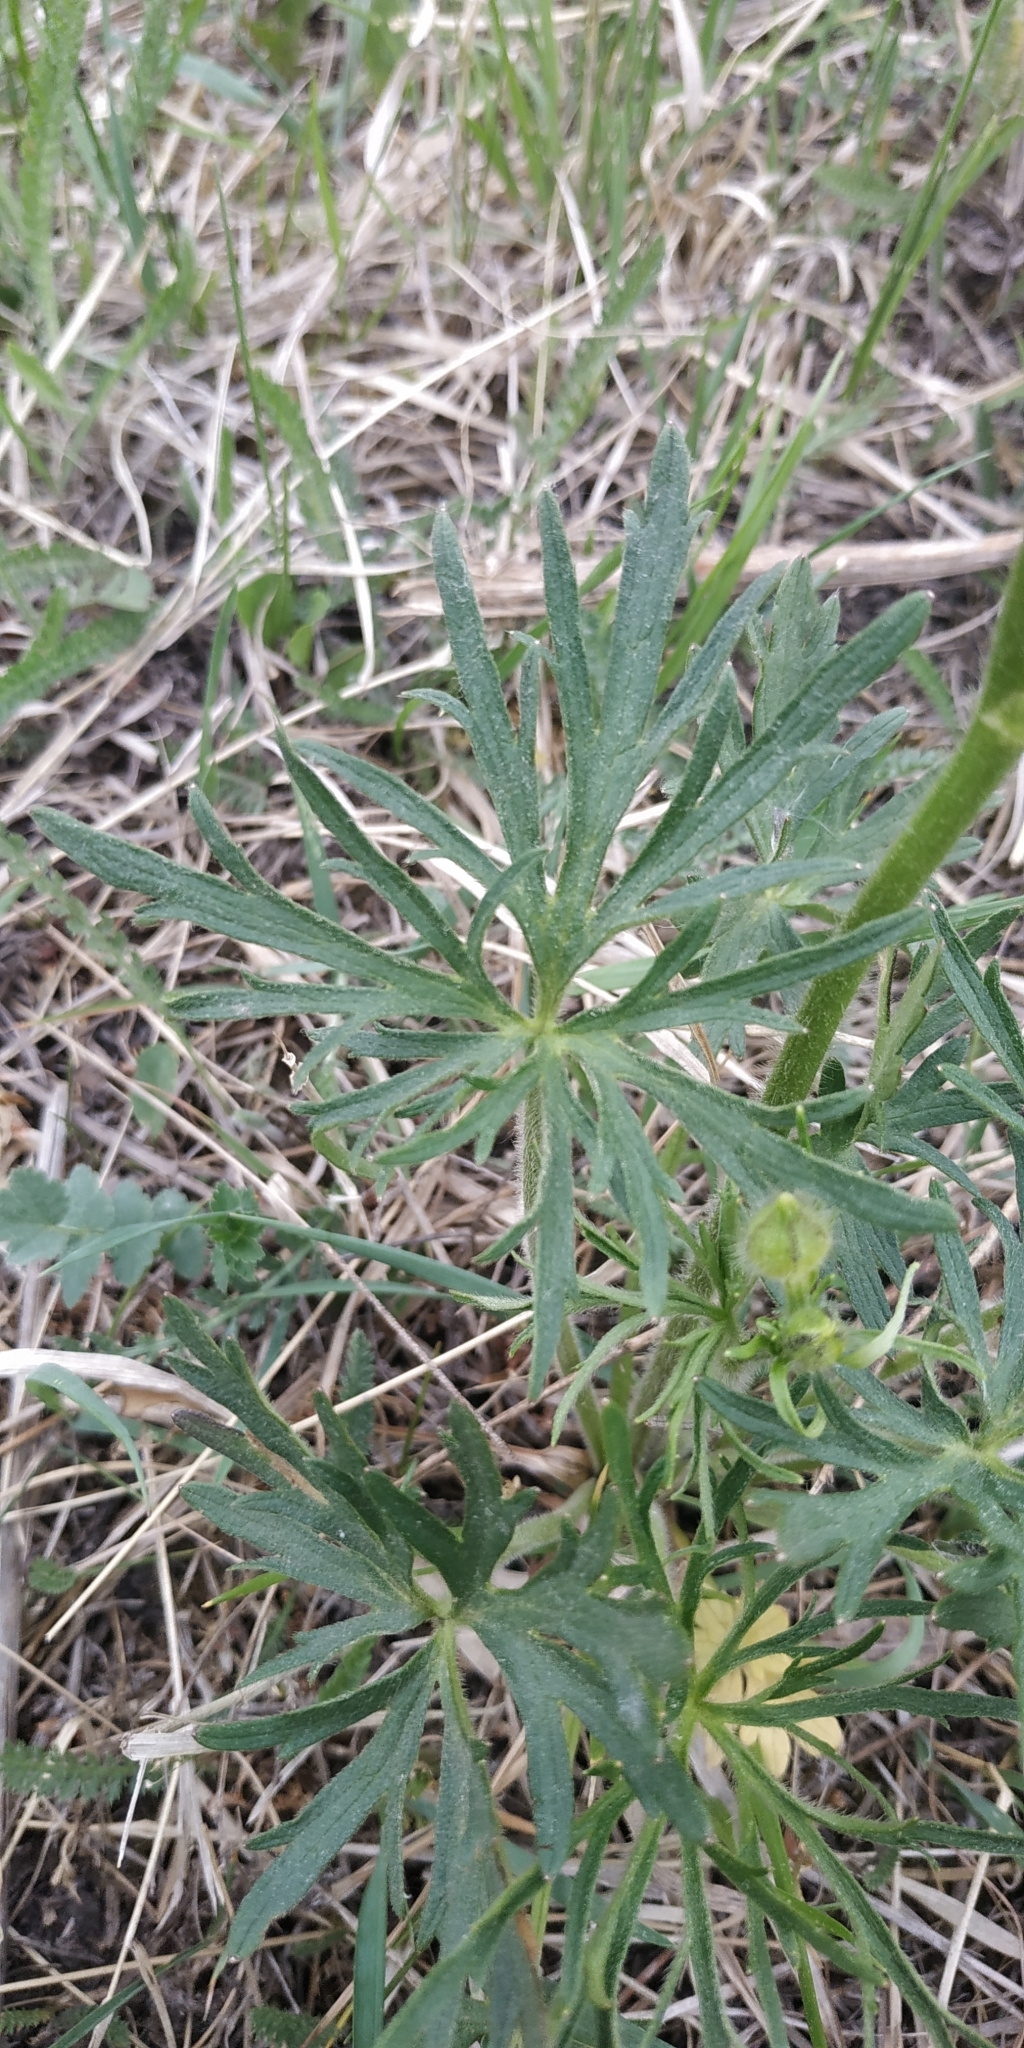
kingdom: Plantae
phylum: Tracheophyta
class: Magnoliopsida
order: Ranunculales
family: Ranunculaceae
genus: Ranunculus
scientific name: Ranunculus polyanthemos
